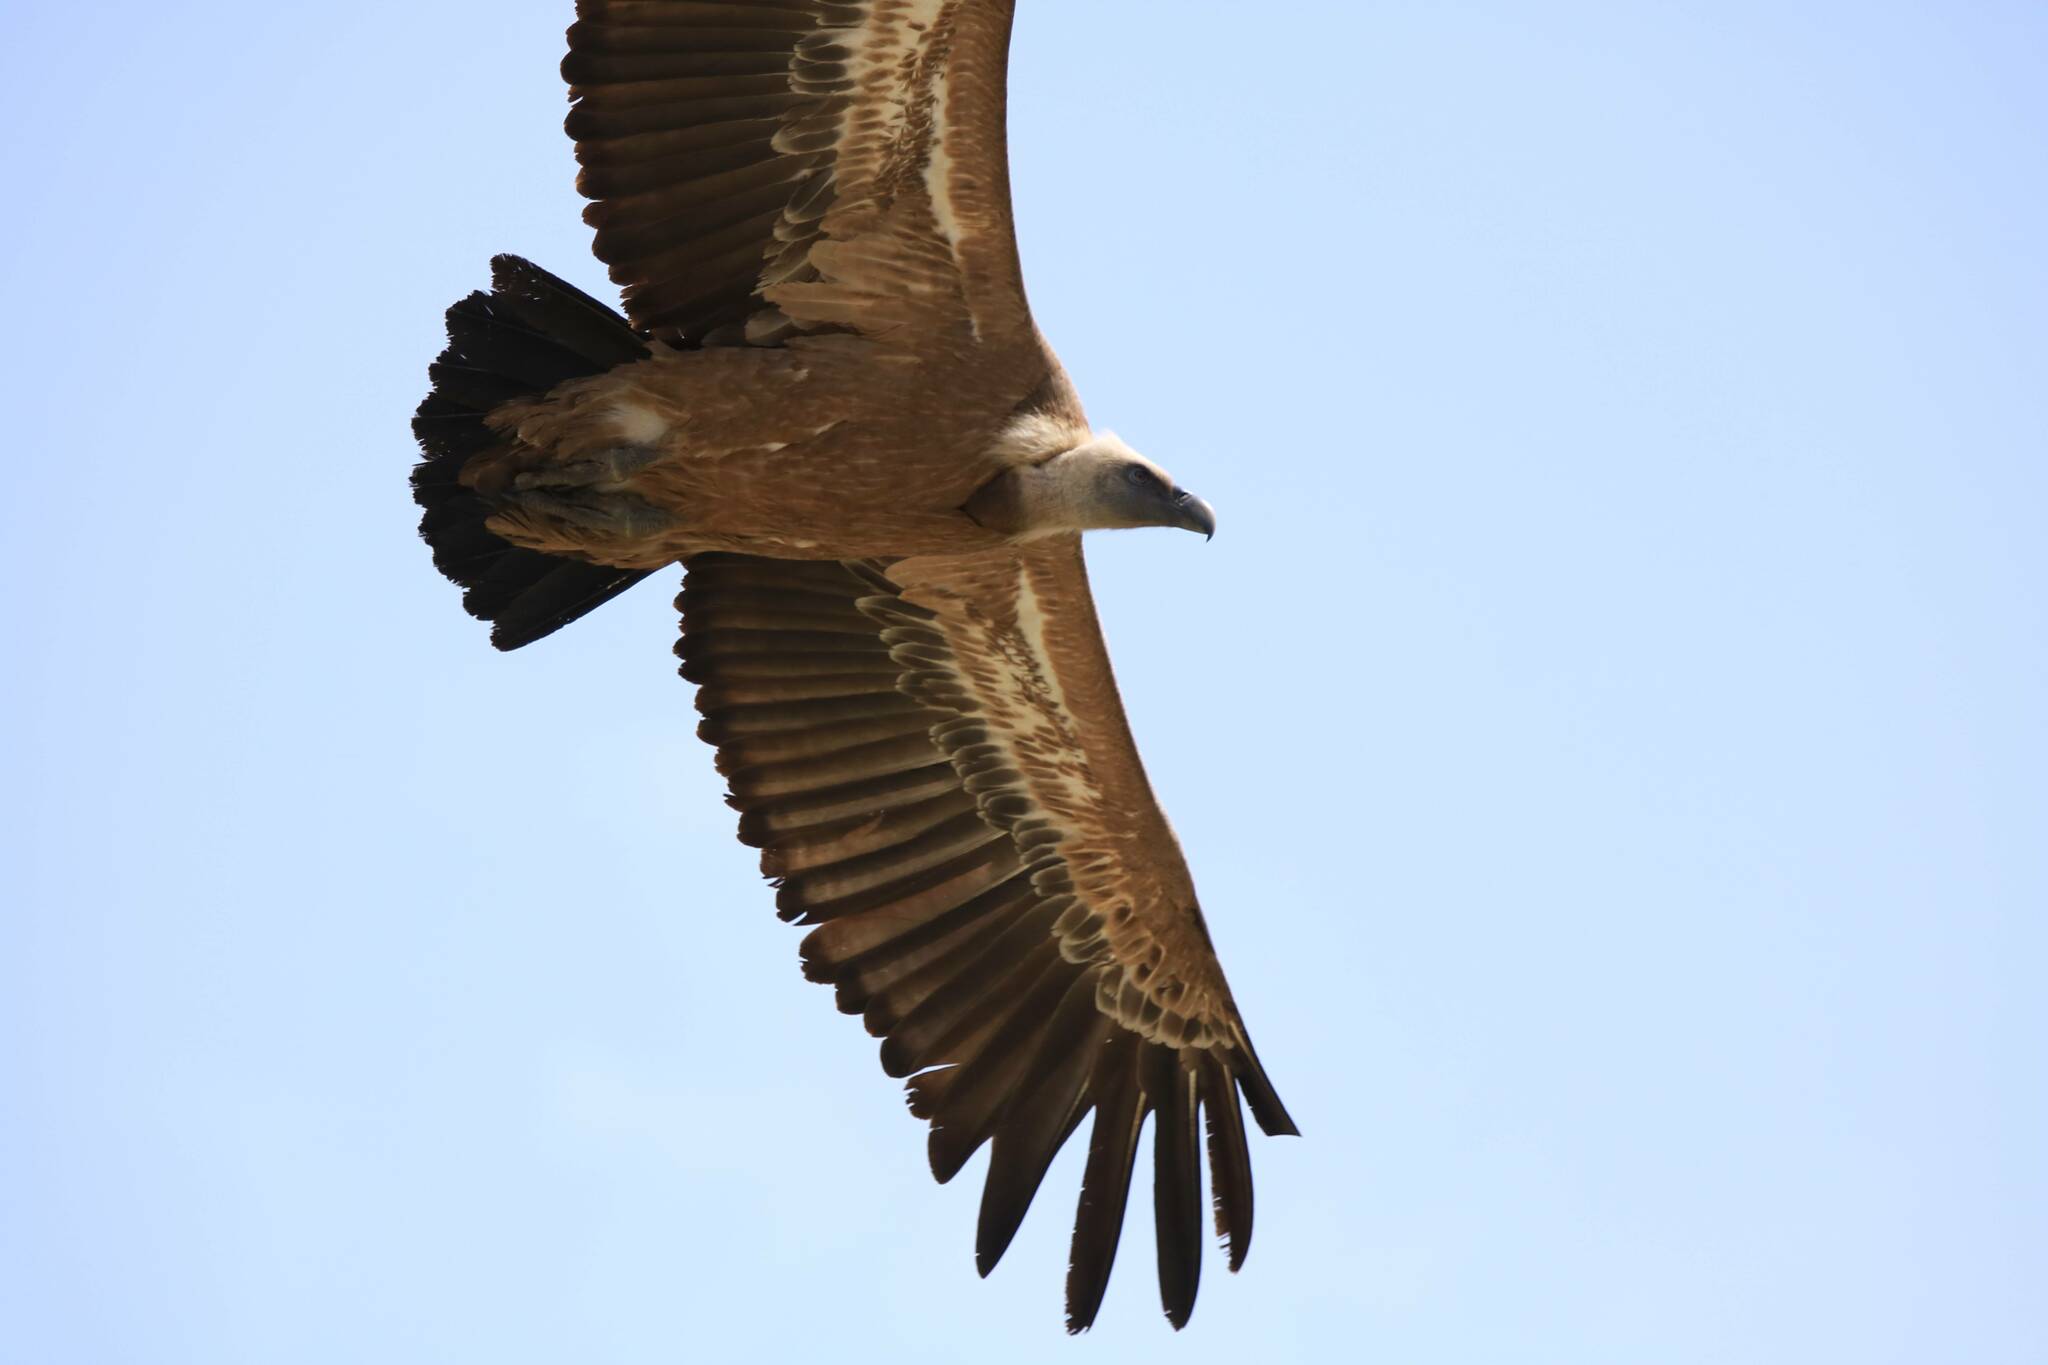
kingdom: Animalia
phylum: Chordata
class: Aves
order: Accipitriformes
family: Accipitridae
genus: Gyps
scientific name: Gyps fulvus
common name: Griffon vulture
